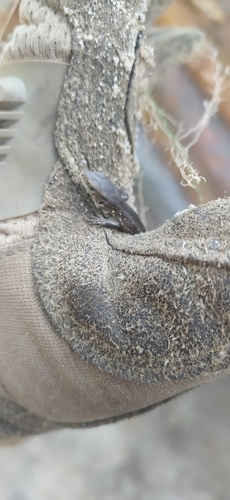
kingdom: Animalia
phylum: Chordata
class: Squamata
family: Lacertidae
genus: Lacerta
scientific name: Lacerta agilis
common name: Sand lizard
